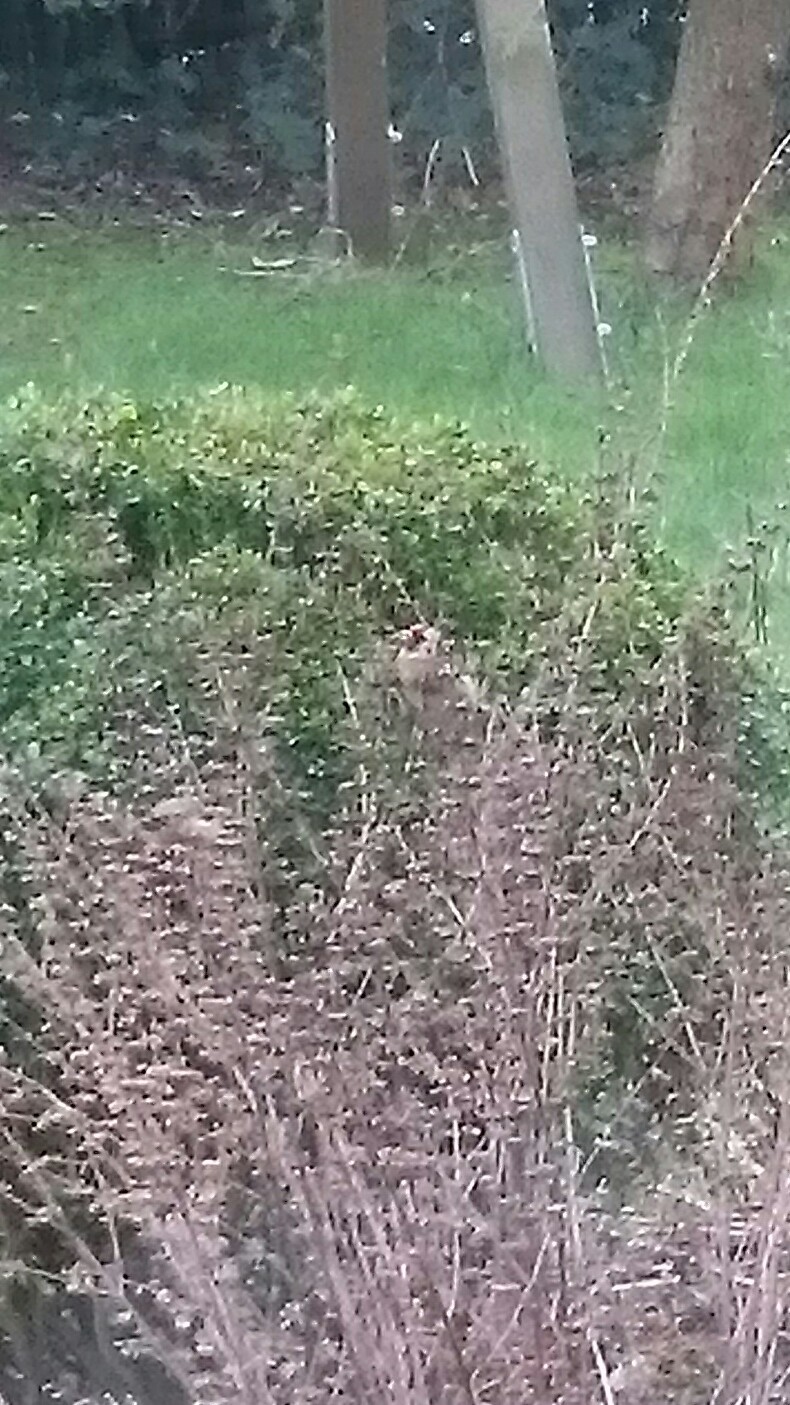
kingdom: Animalia
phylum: Chordata
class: Aves
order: Passeriformes
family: Fringillidae
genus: Carduelis
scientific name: Carduelis carduelis
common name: European goldfinch
